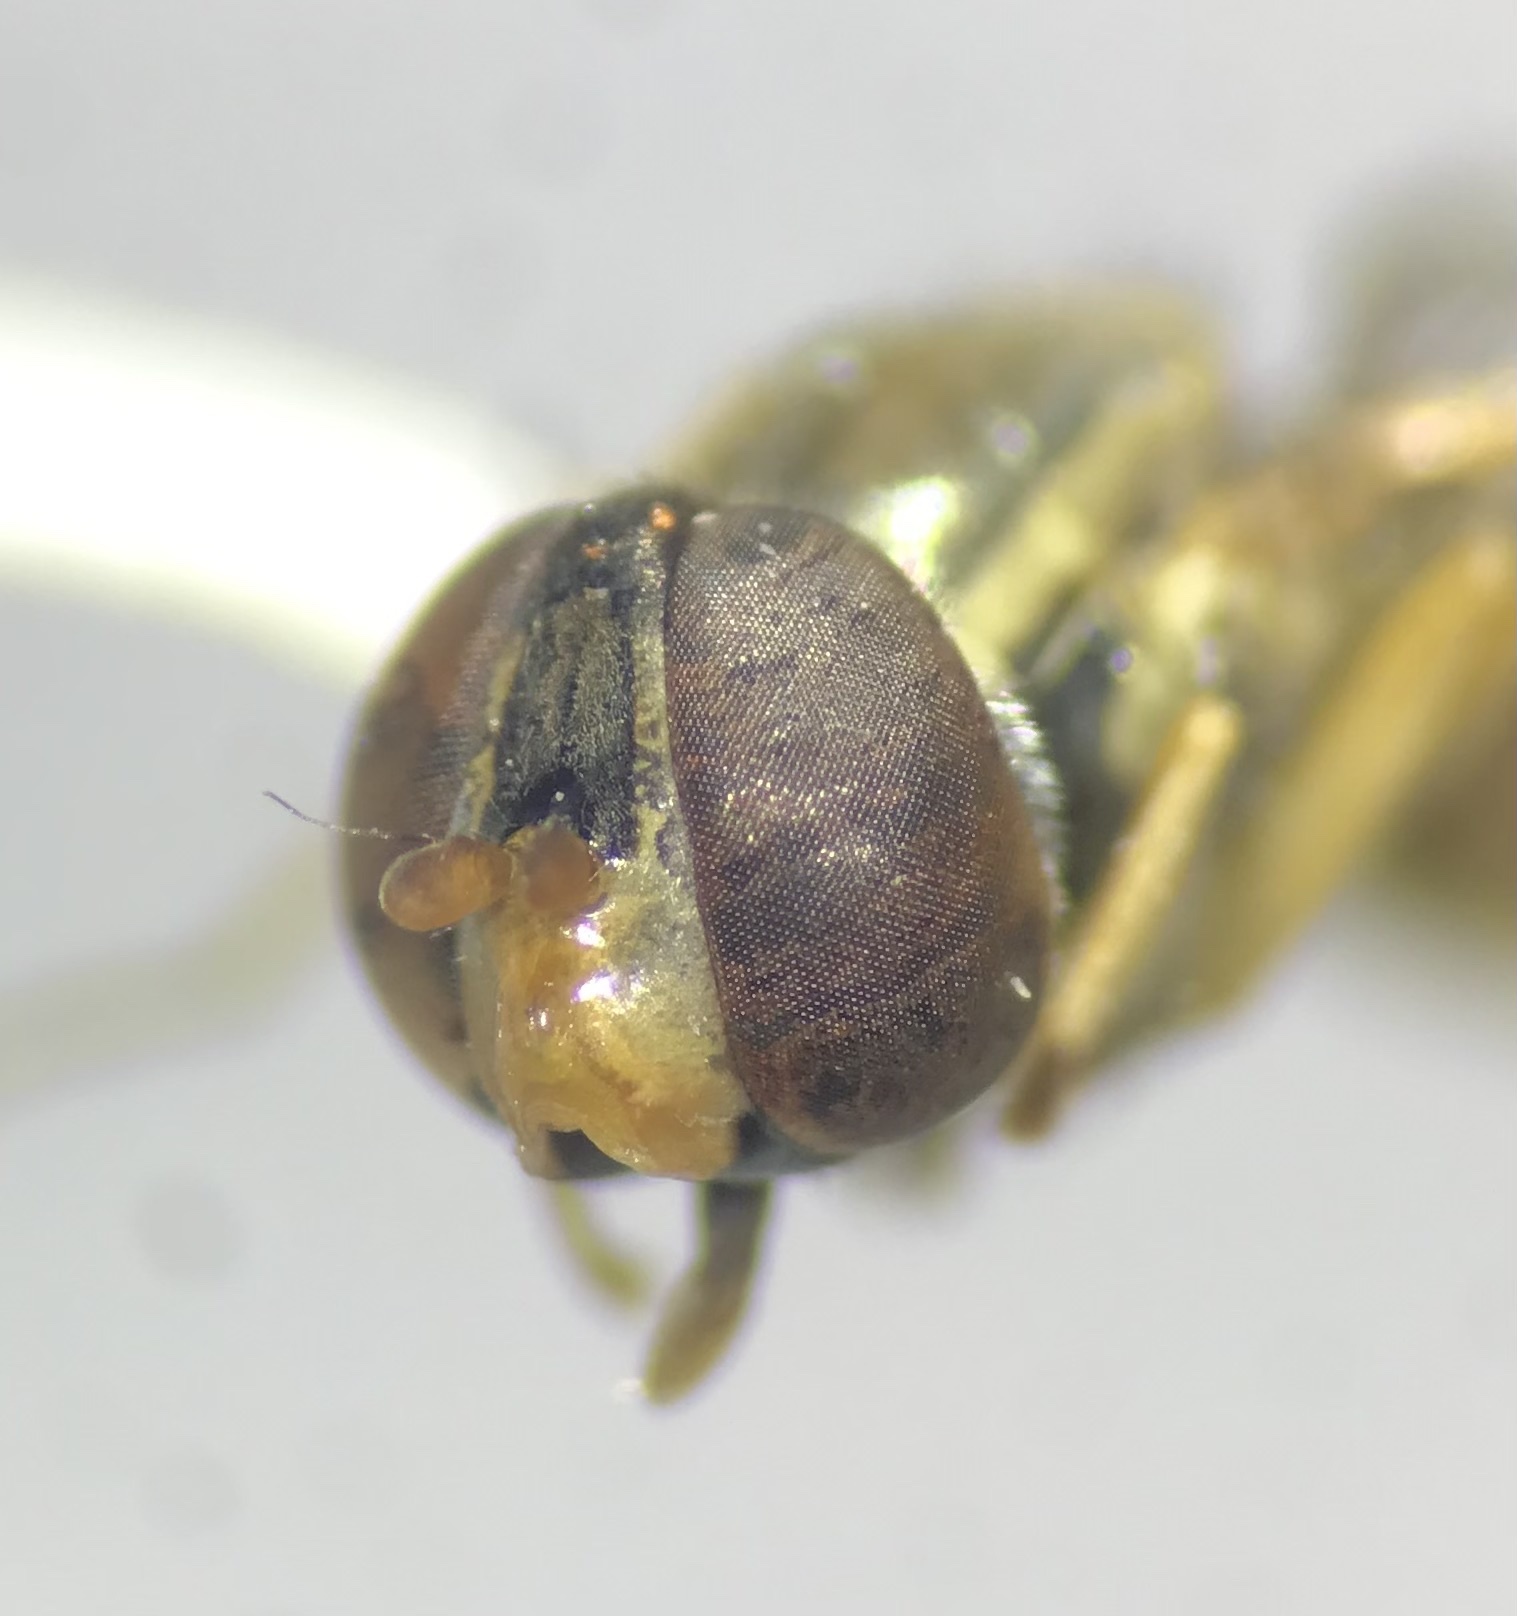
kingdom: Animalia
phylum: Arthropoda
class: Insecta
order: Diptera
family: Syrphidae
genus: Toxomerus
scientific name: Toxomerus marginatus
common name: Syrphid fly
